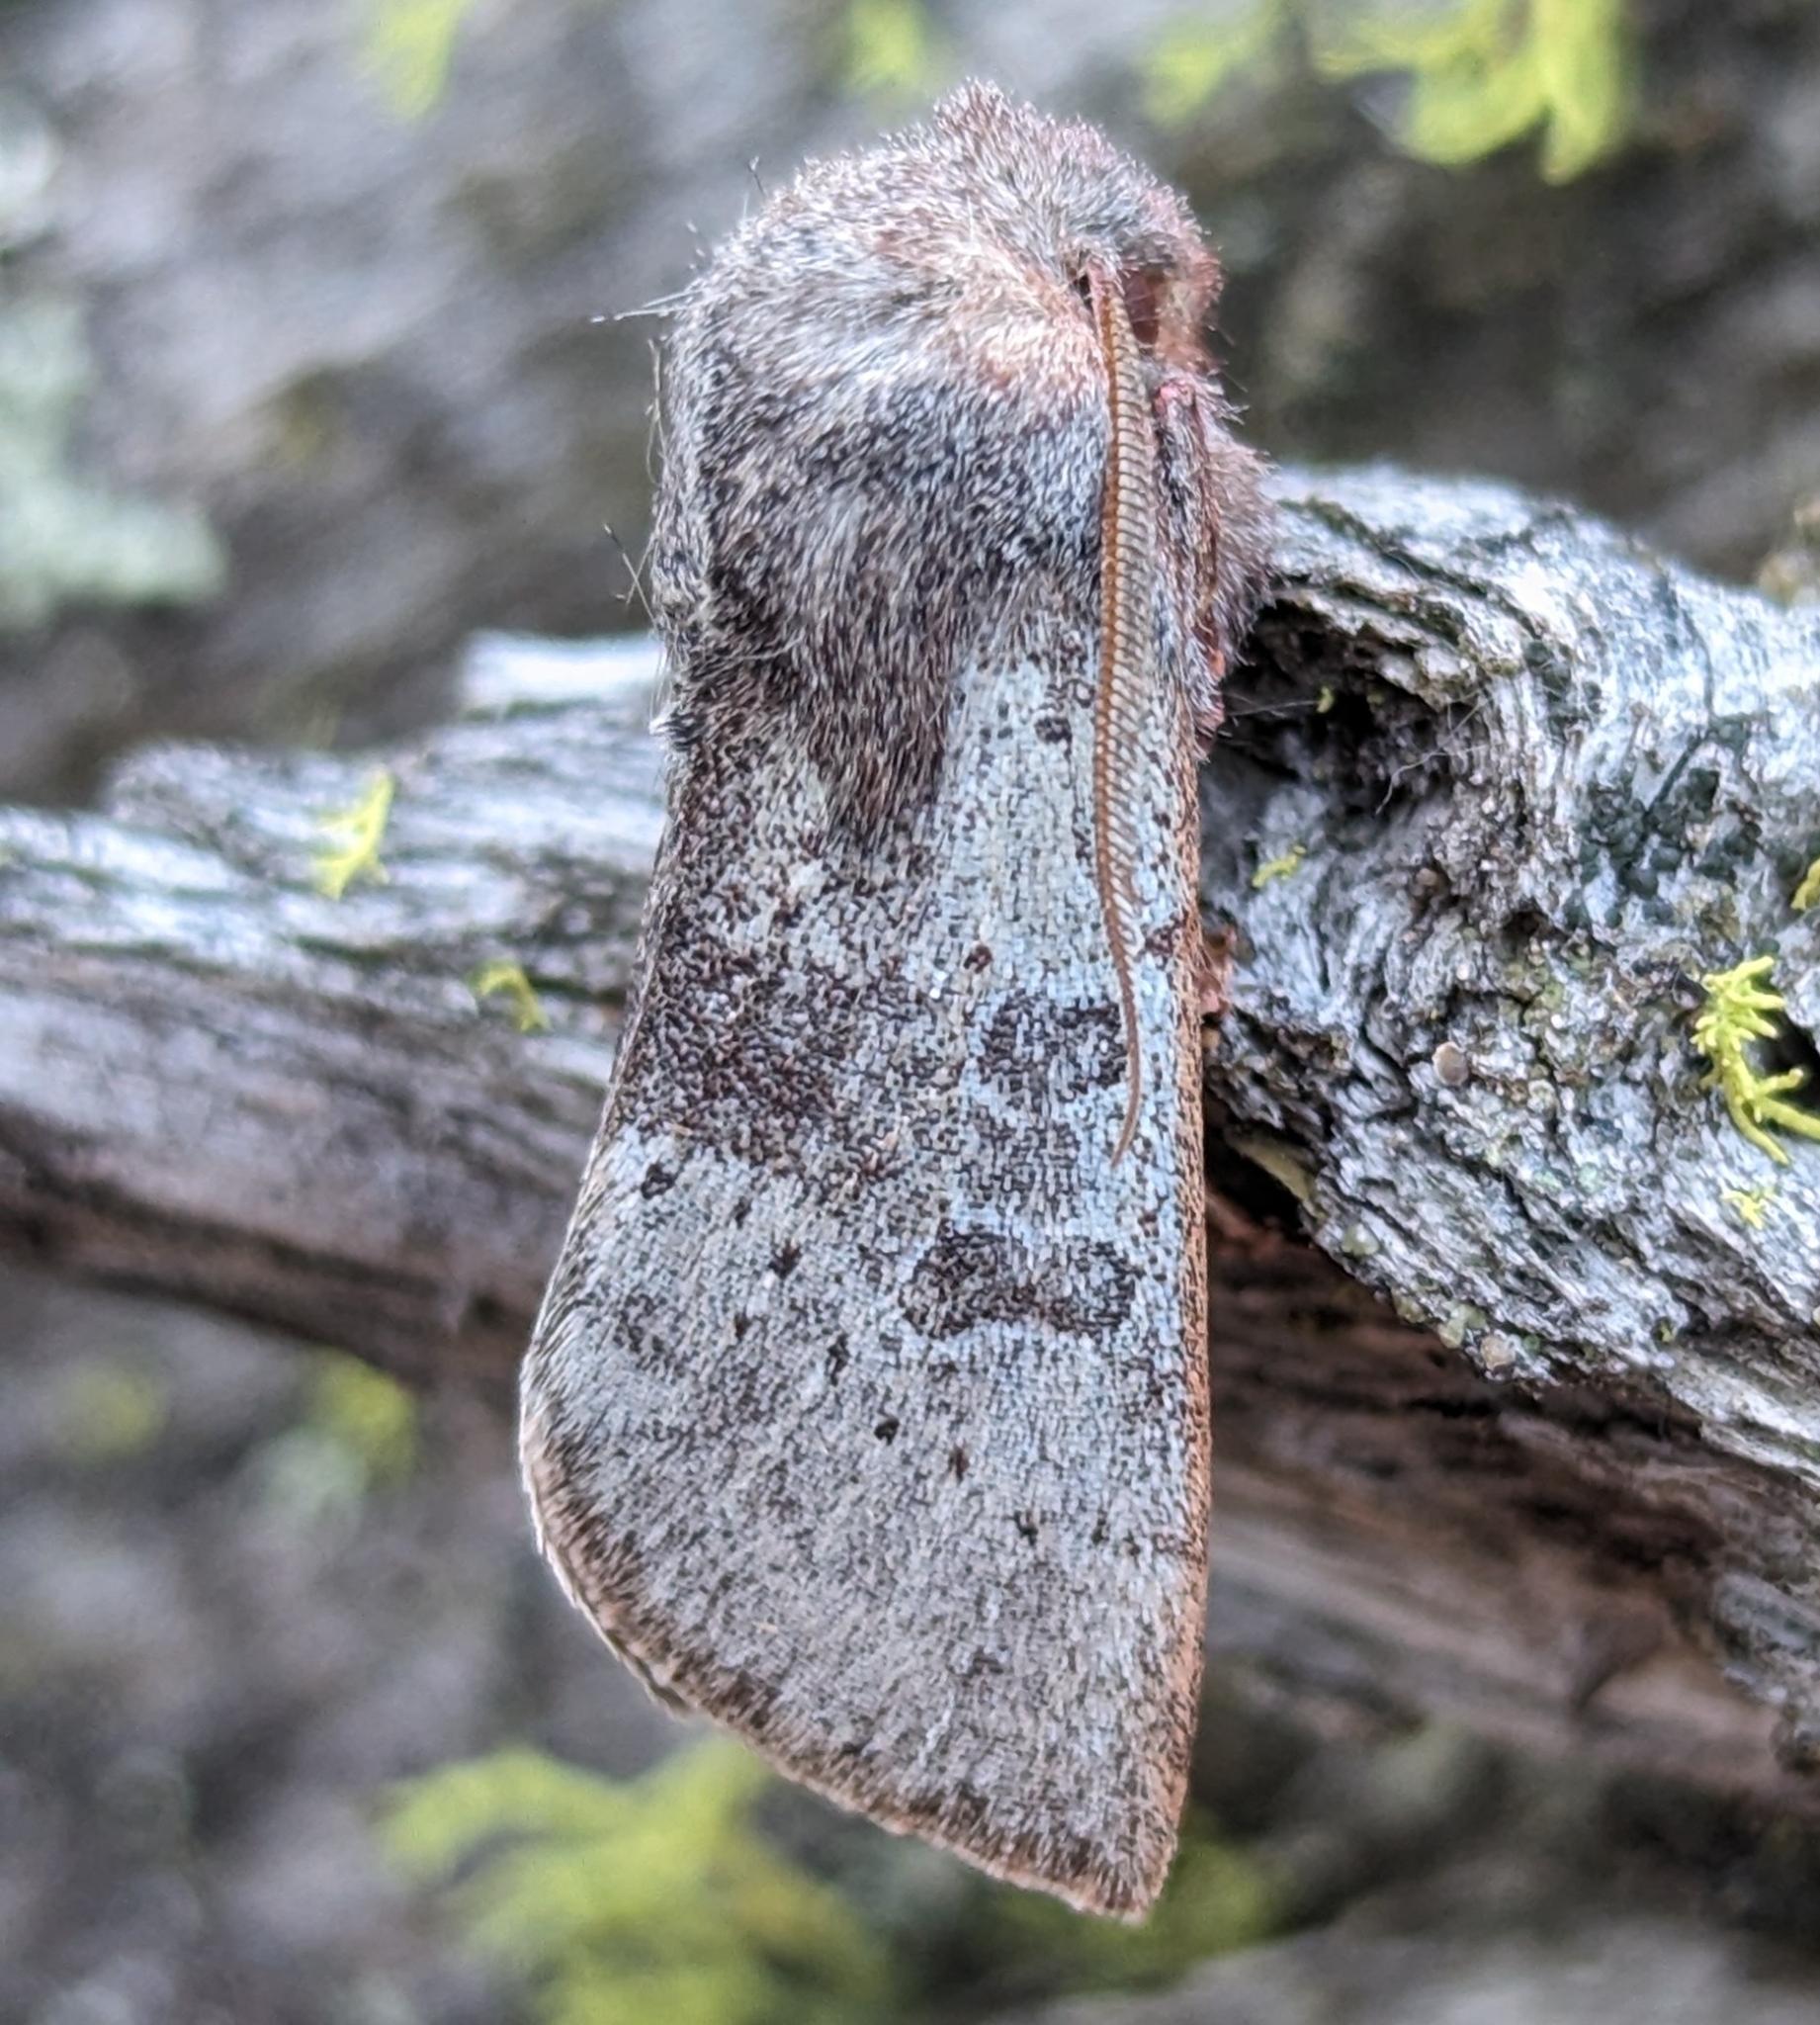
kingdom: Animalia
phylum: Arthropoda
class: Insecta
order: Lepidoptera
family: Noctuidae
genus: Orthosia
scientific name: Orthosia pulchella
